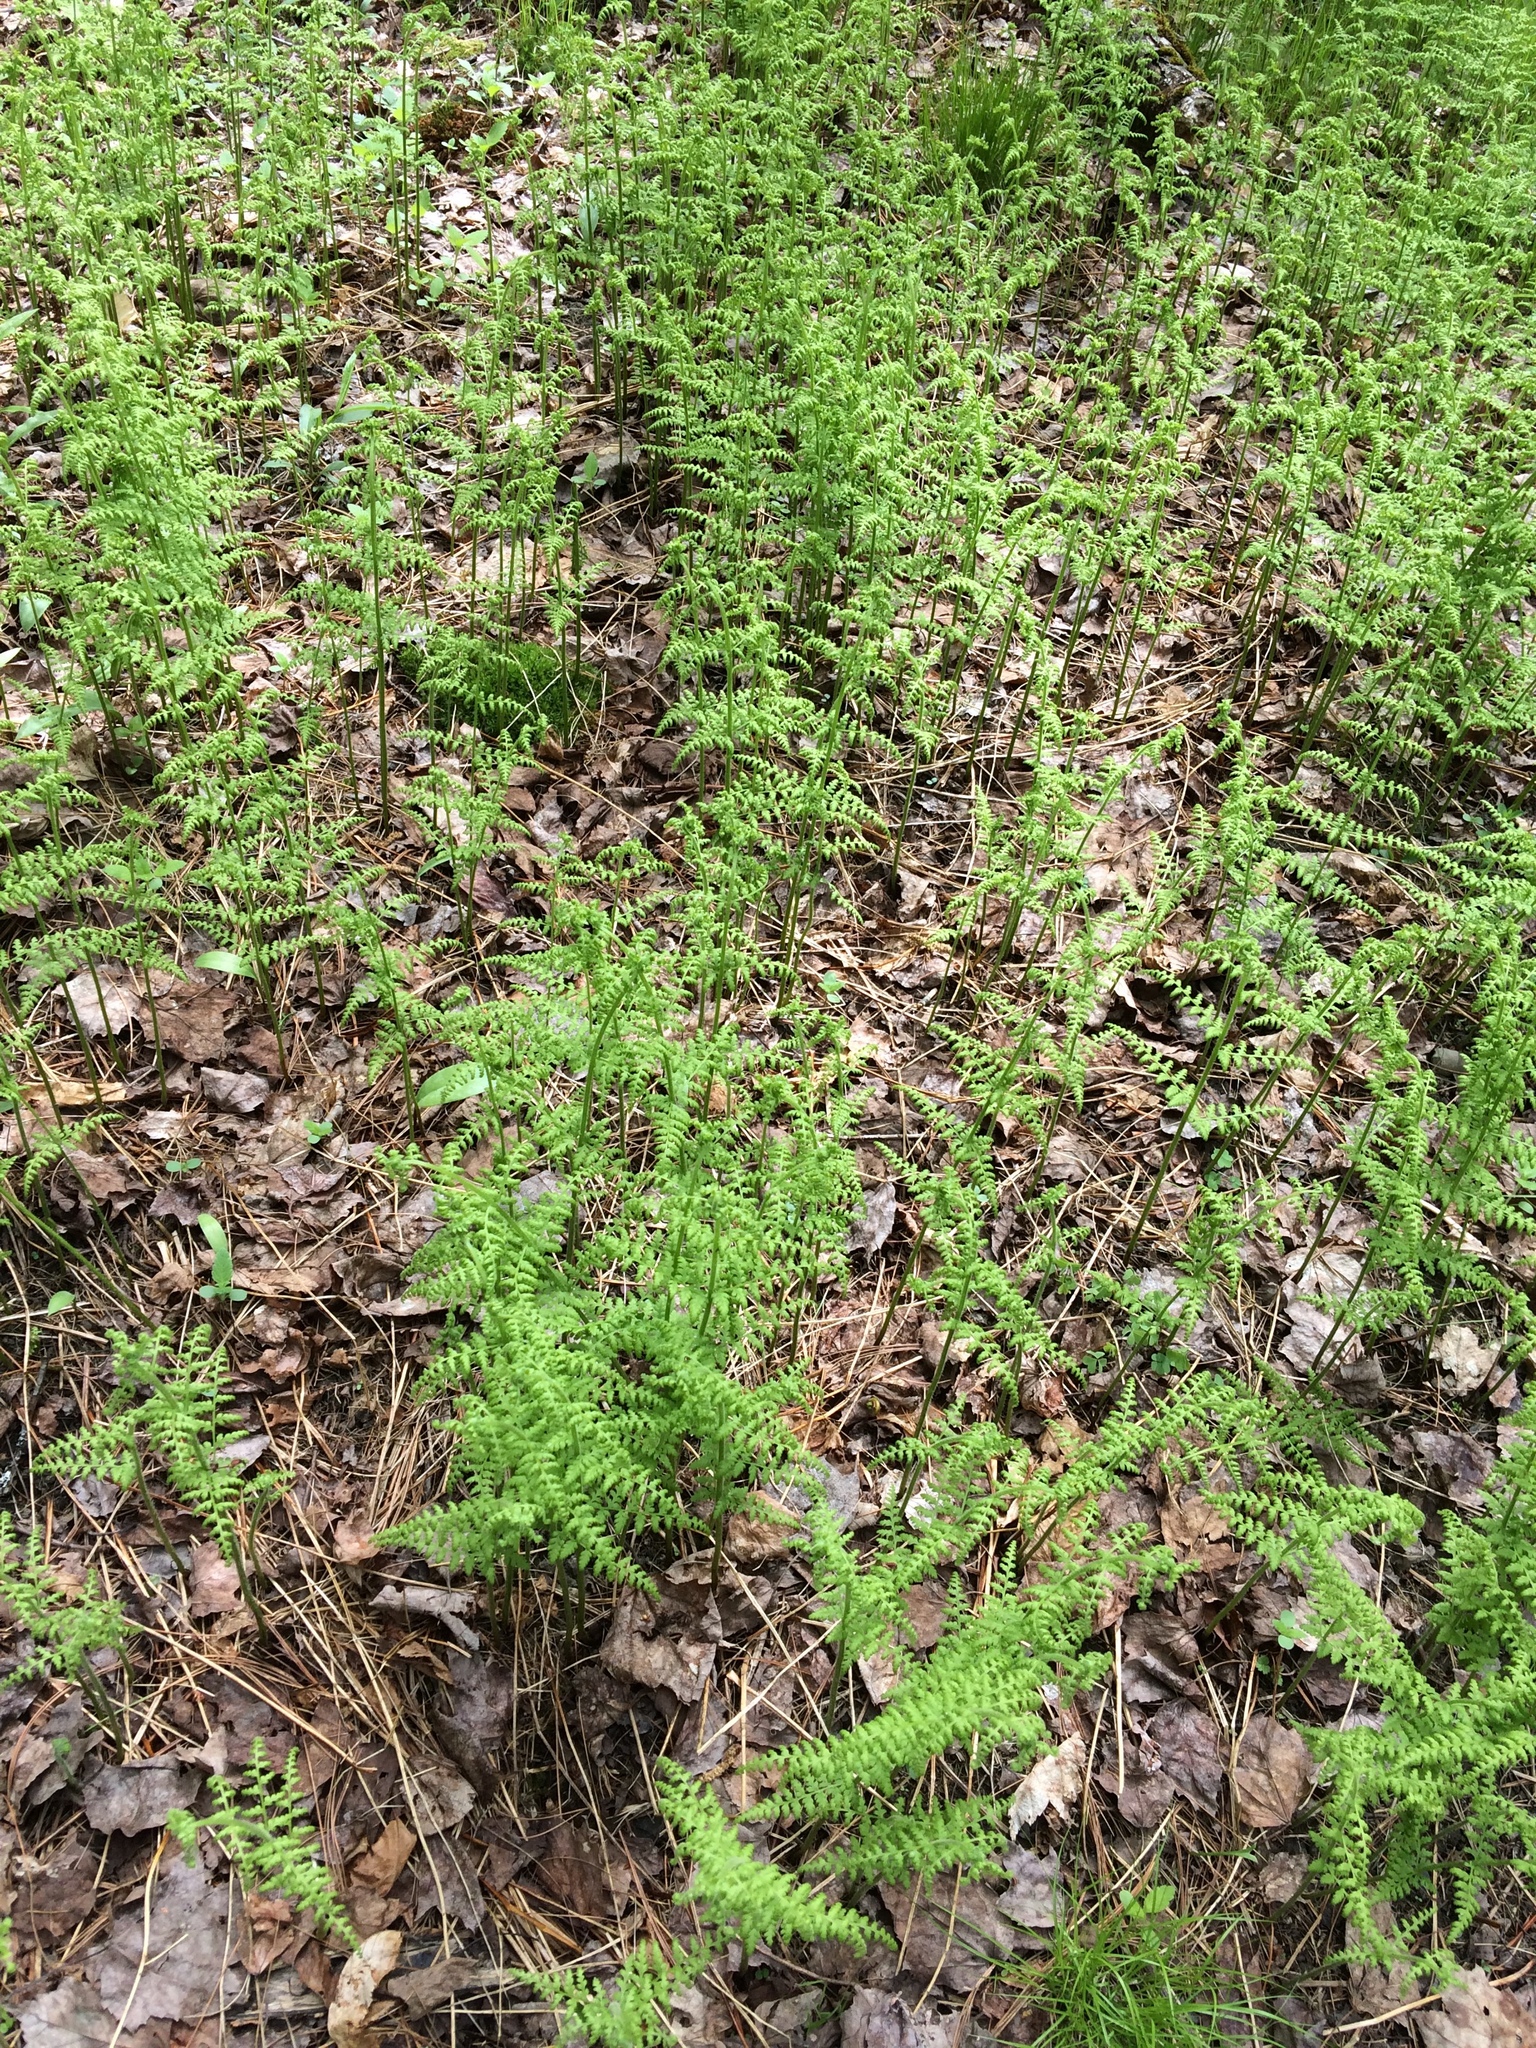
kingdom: Plantae
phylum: Tracheophyta
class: Polypodiopsida
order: Polypodiales
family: Dennstaedtiaceae
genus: Sitobolium
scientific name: Sitobolium punctilobum
